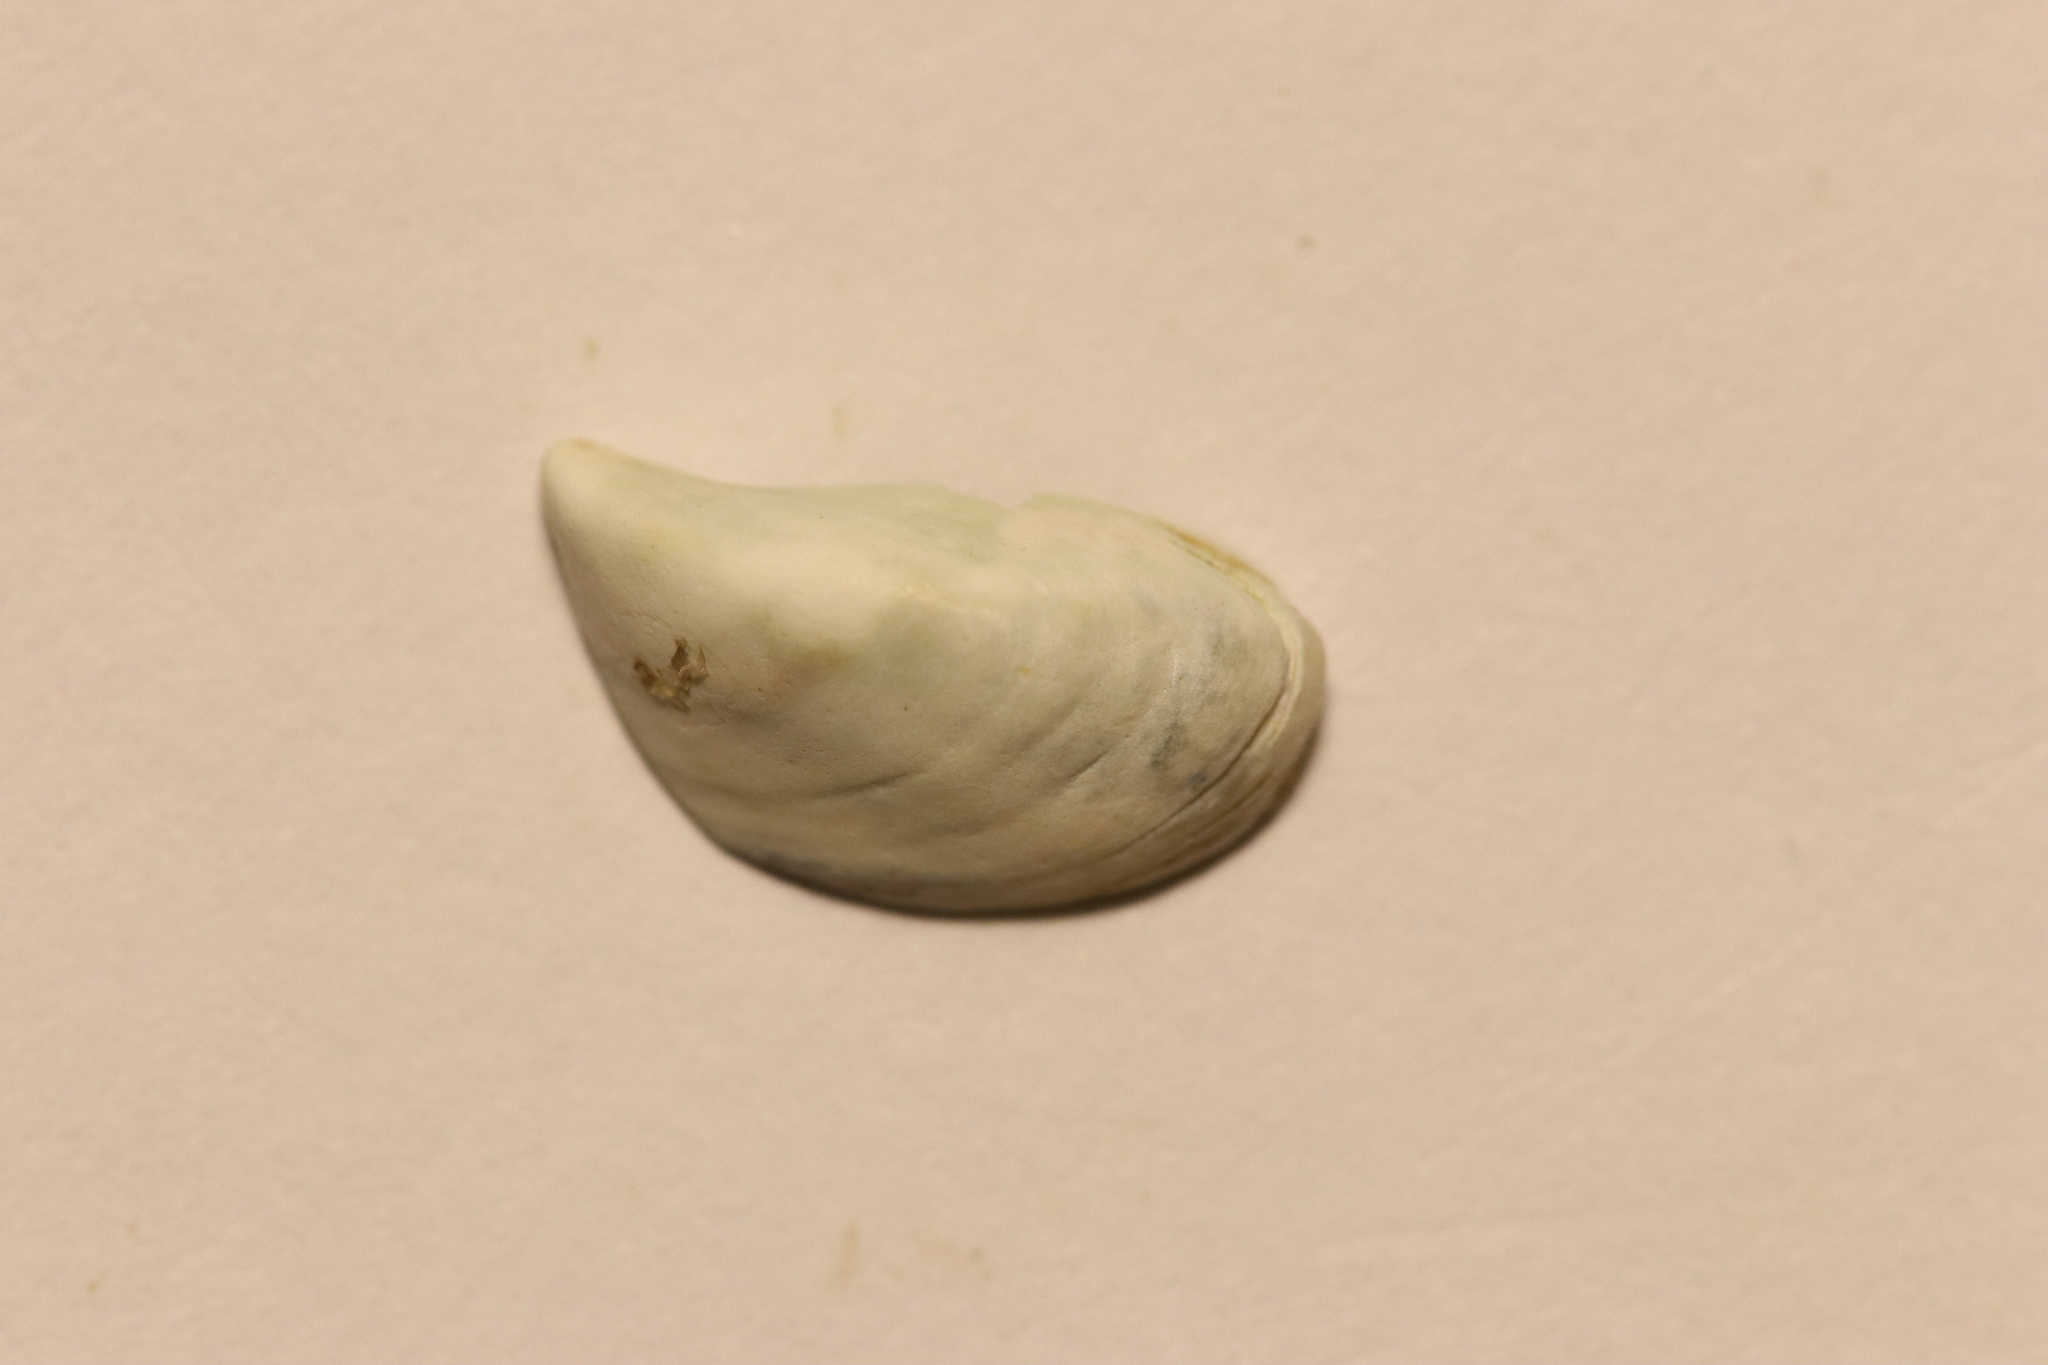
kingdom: Animalia
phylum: Mollusca
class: Bivalvia
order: Myida
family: Dreissenidae
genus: Dreissena
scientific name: Dreissena bugensis
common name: Quagga mussel
